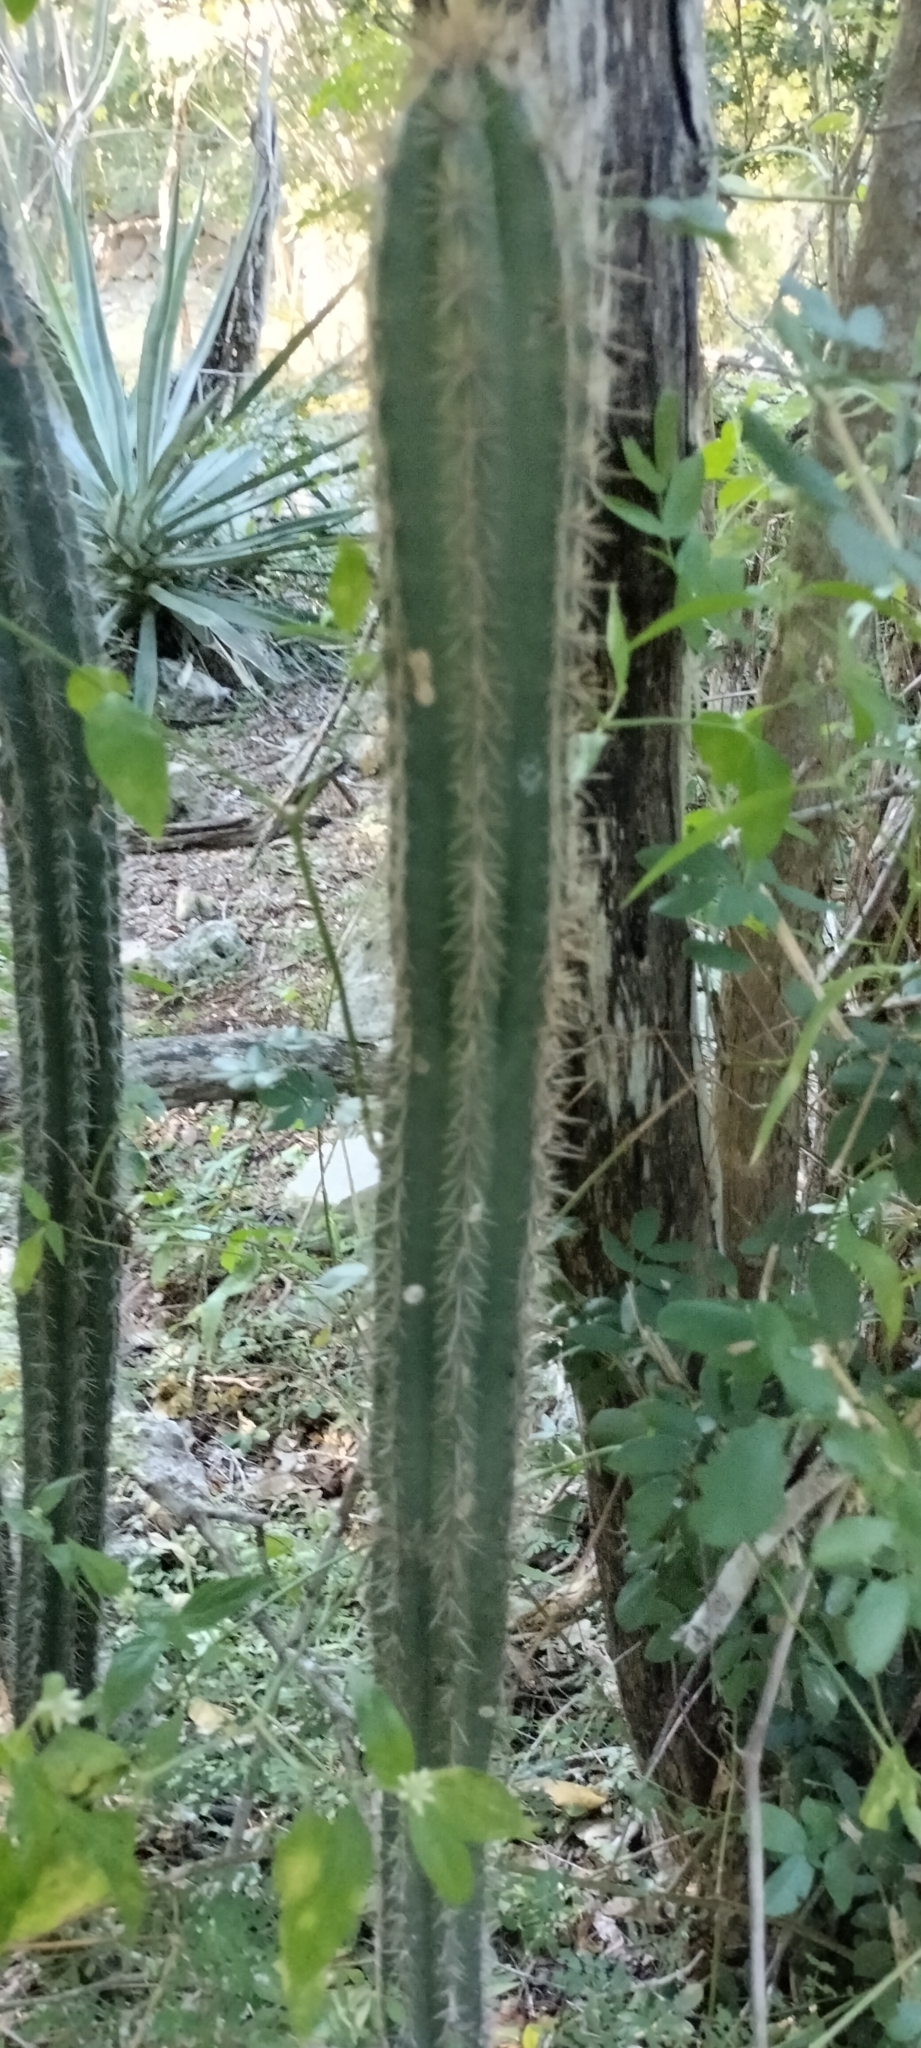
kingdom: Plantae
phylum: Tracheophyta
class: Magnoliopsida
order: Caryophyllales
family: Cactaceae
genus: Pilosocereus
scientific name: Pilosocereus gaumeri
